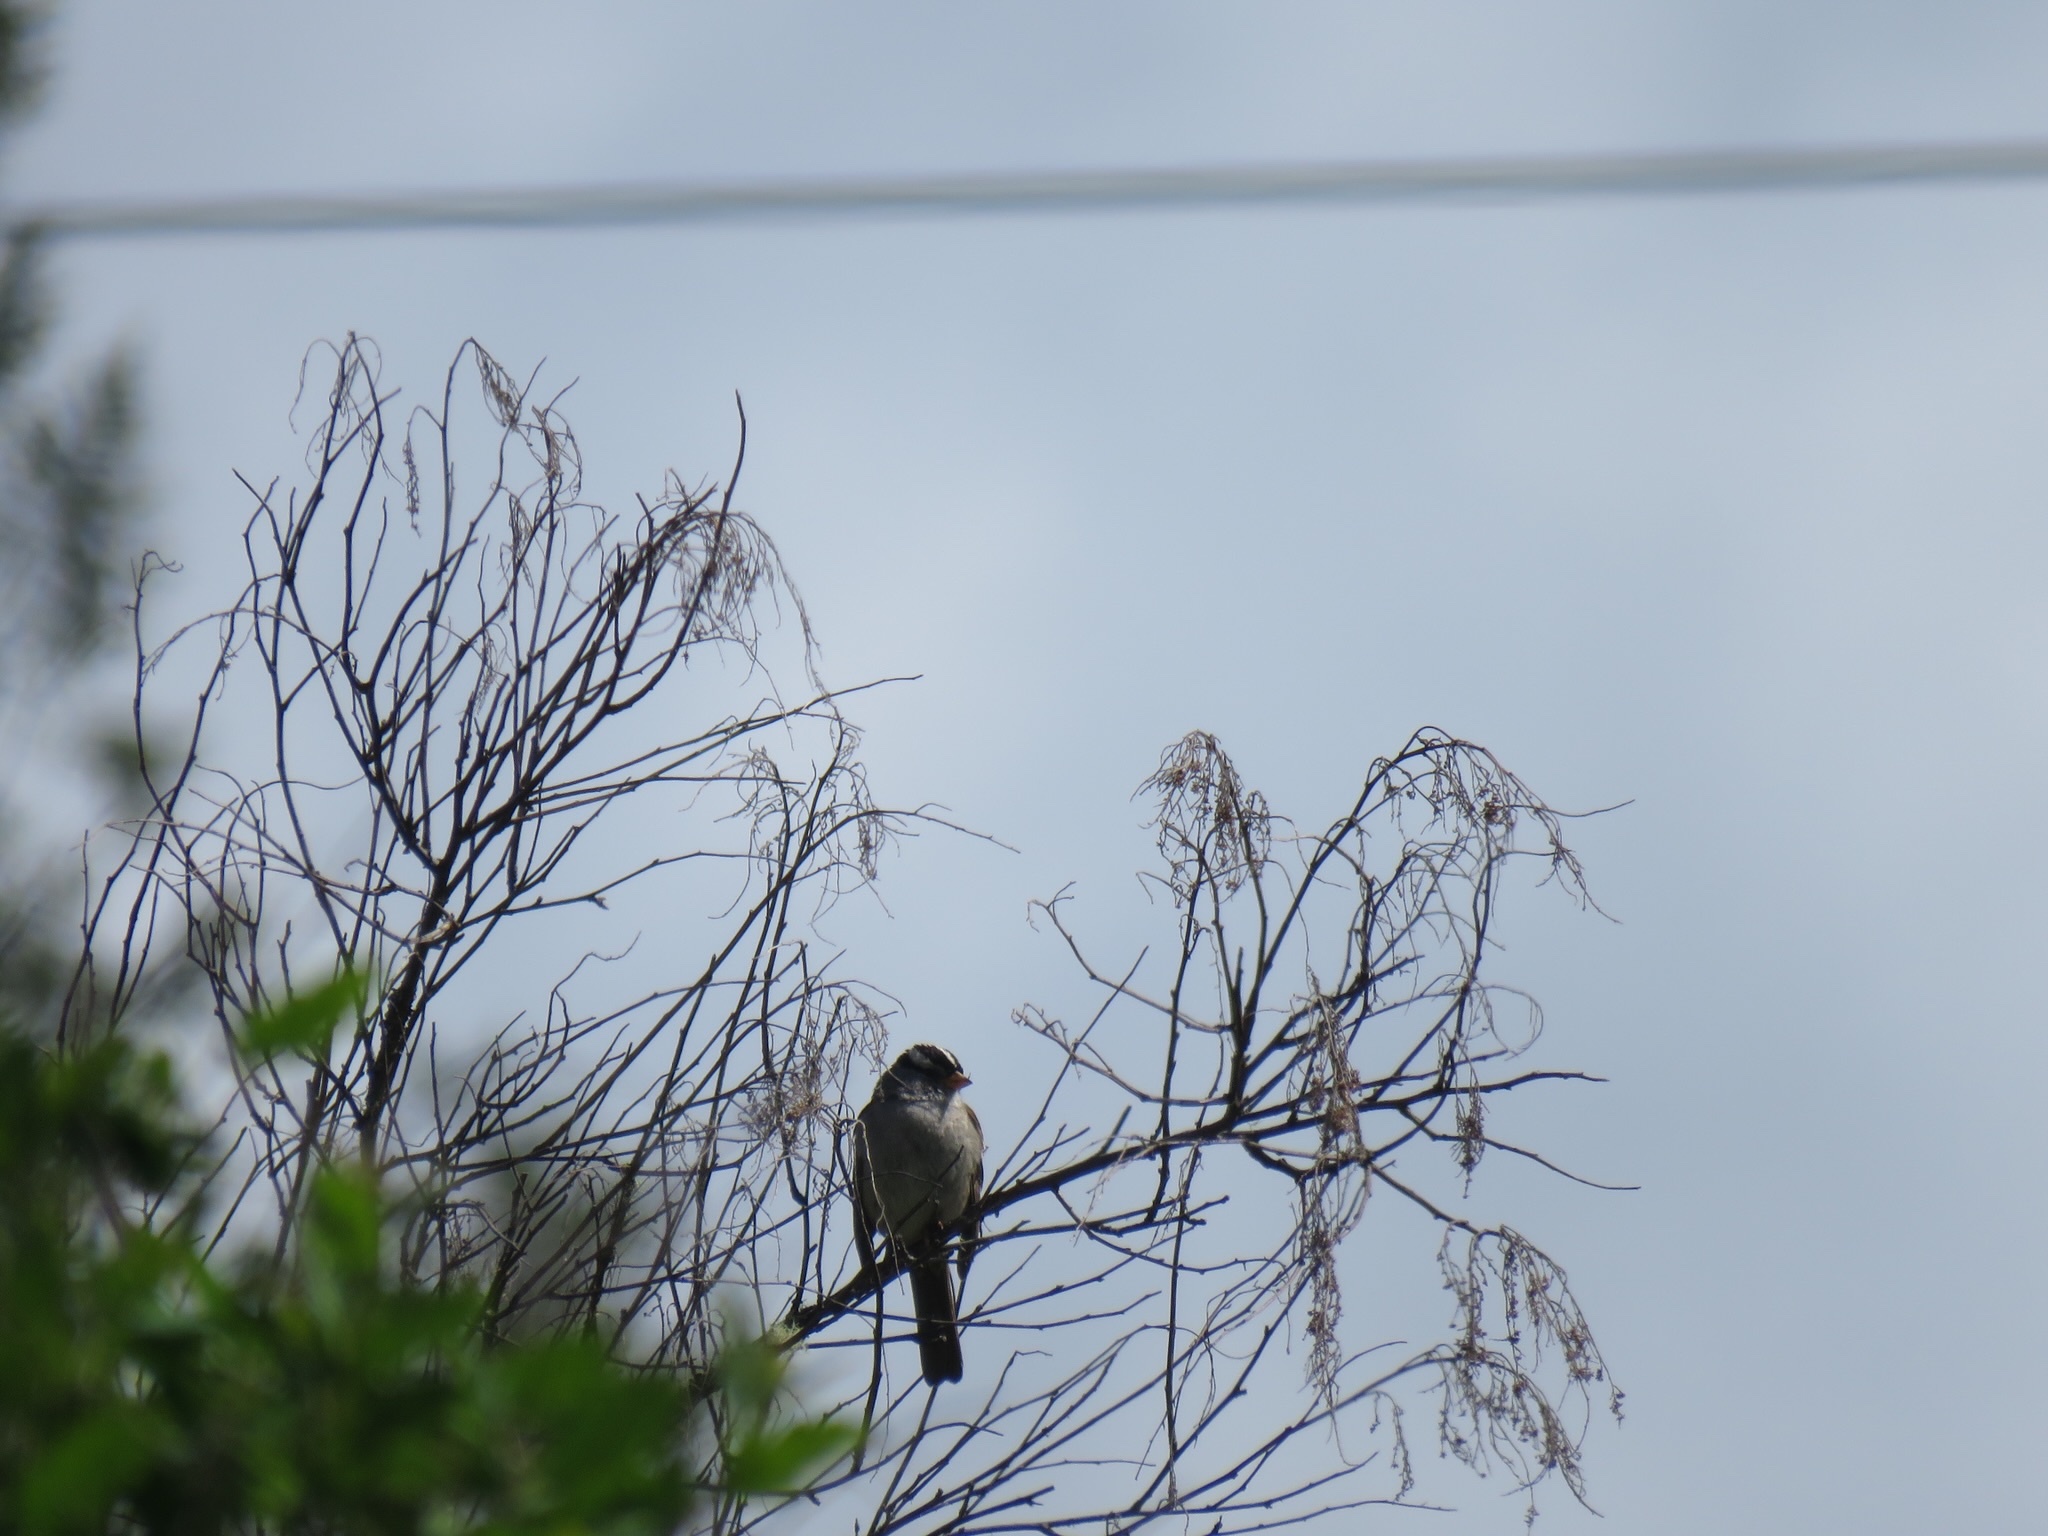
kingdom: Animalia
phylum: Chordata
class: Aves
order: Passeriformes
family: Passerellidae
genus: Zonotrichia
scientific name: Zonotrichia leucophrys
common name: White-crowned sparrow
